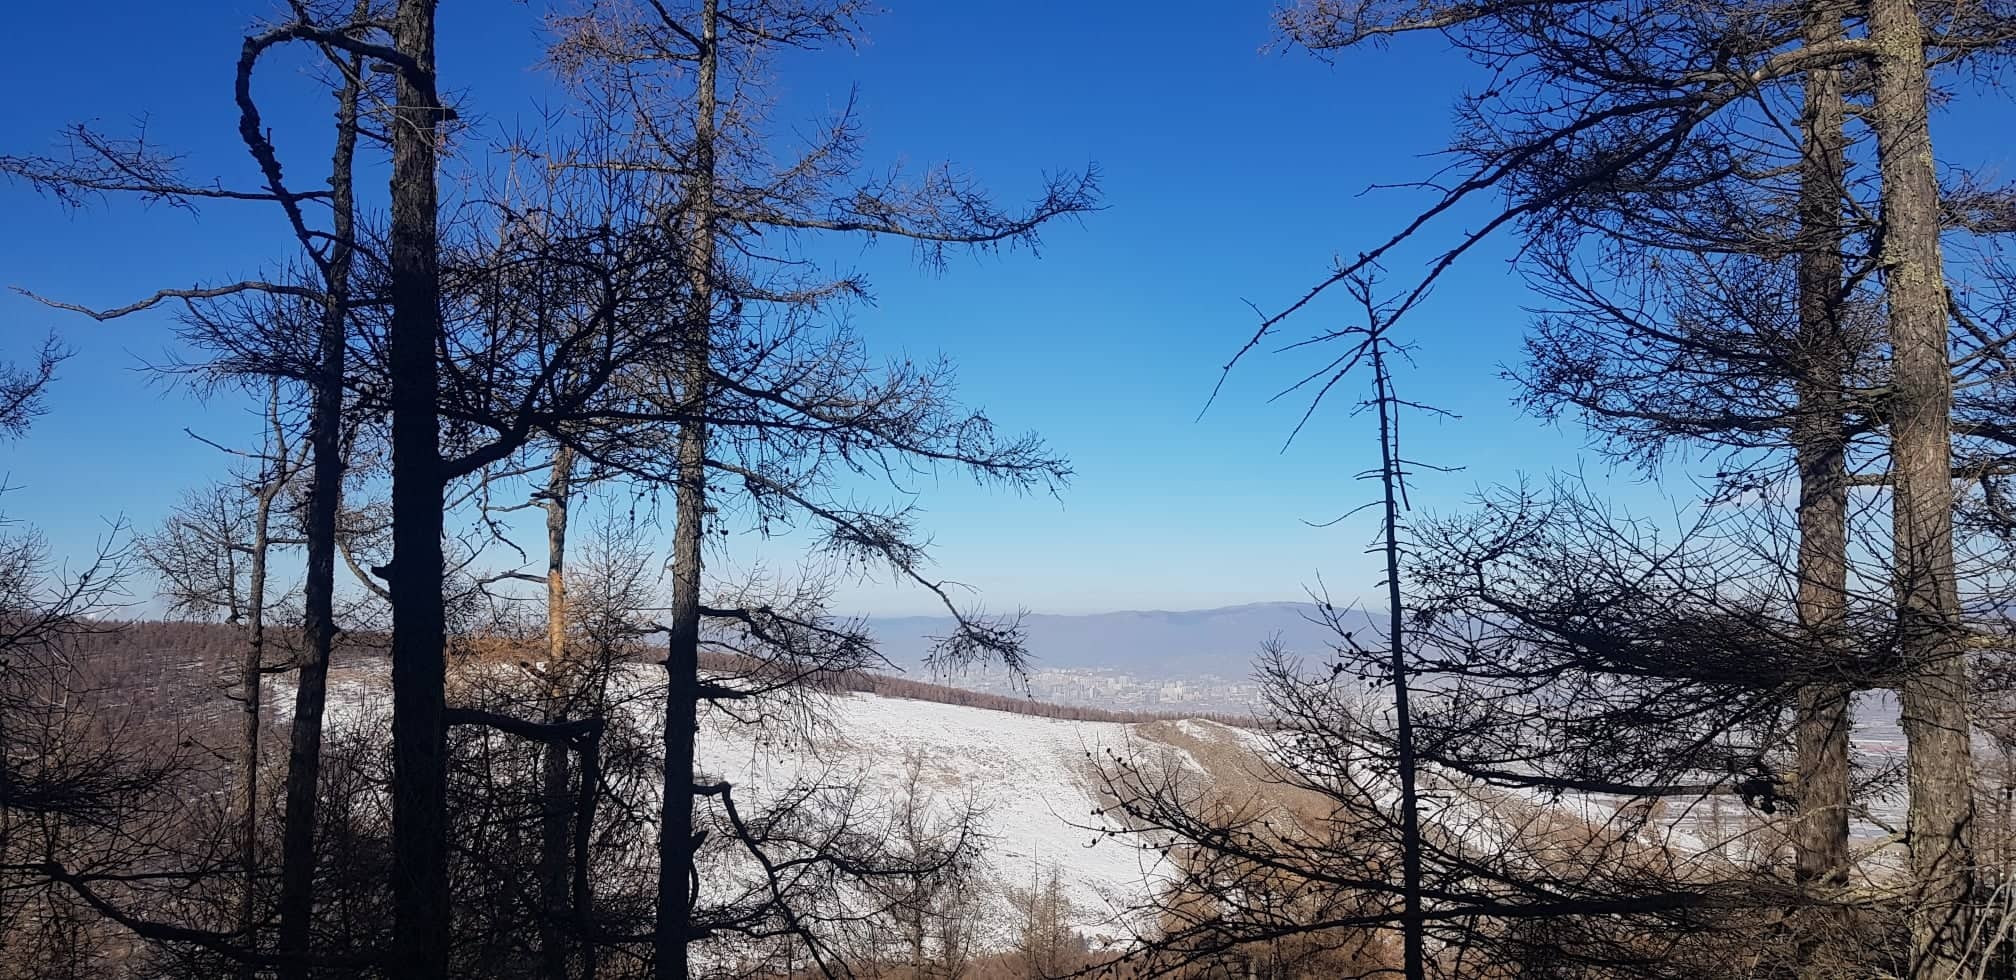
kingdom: Plantae
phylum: Tracheophyta
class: Pinopsida
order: Pinales
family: Pinaceae
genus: Larix
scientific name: Larix sibirica
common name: Siberian larch
